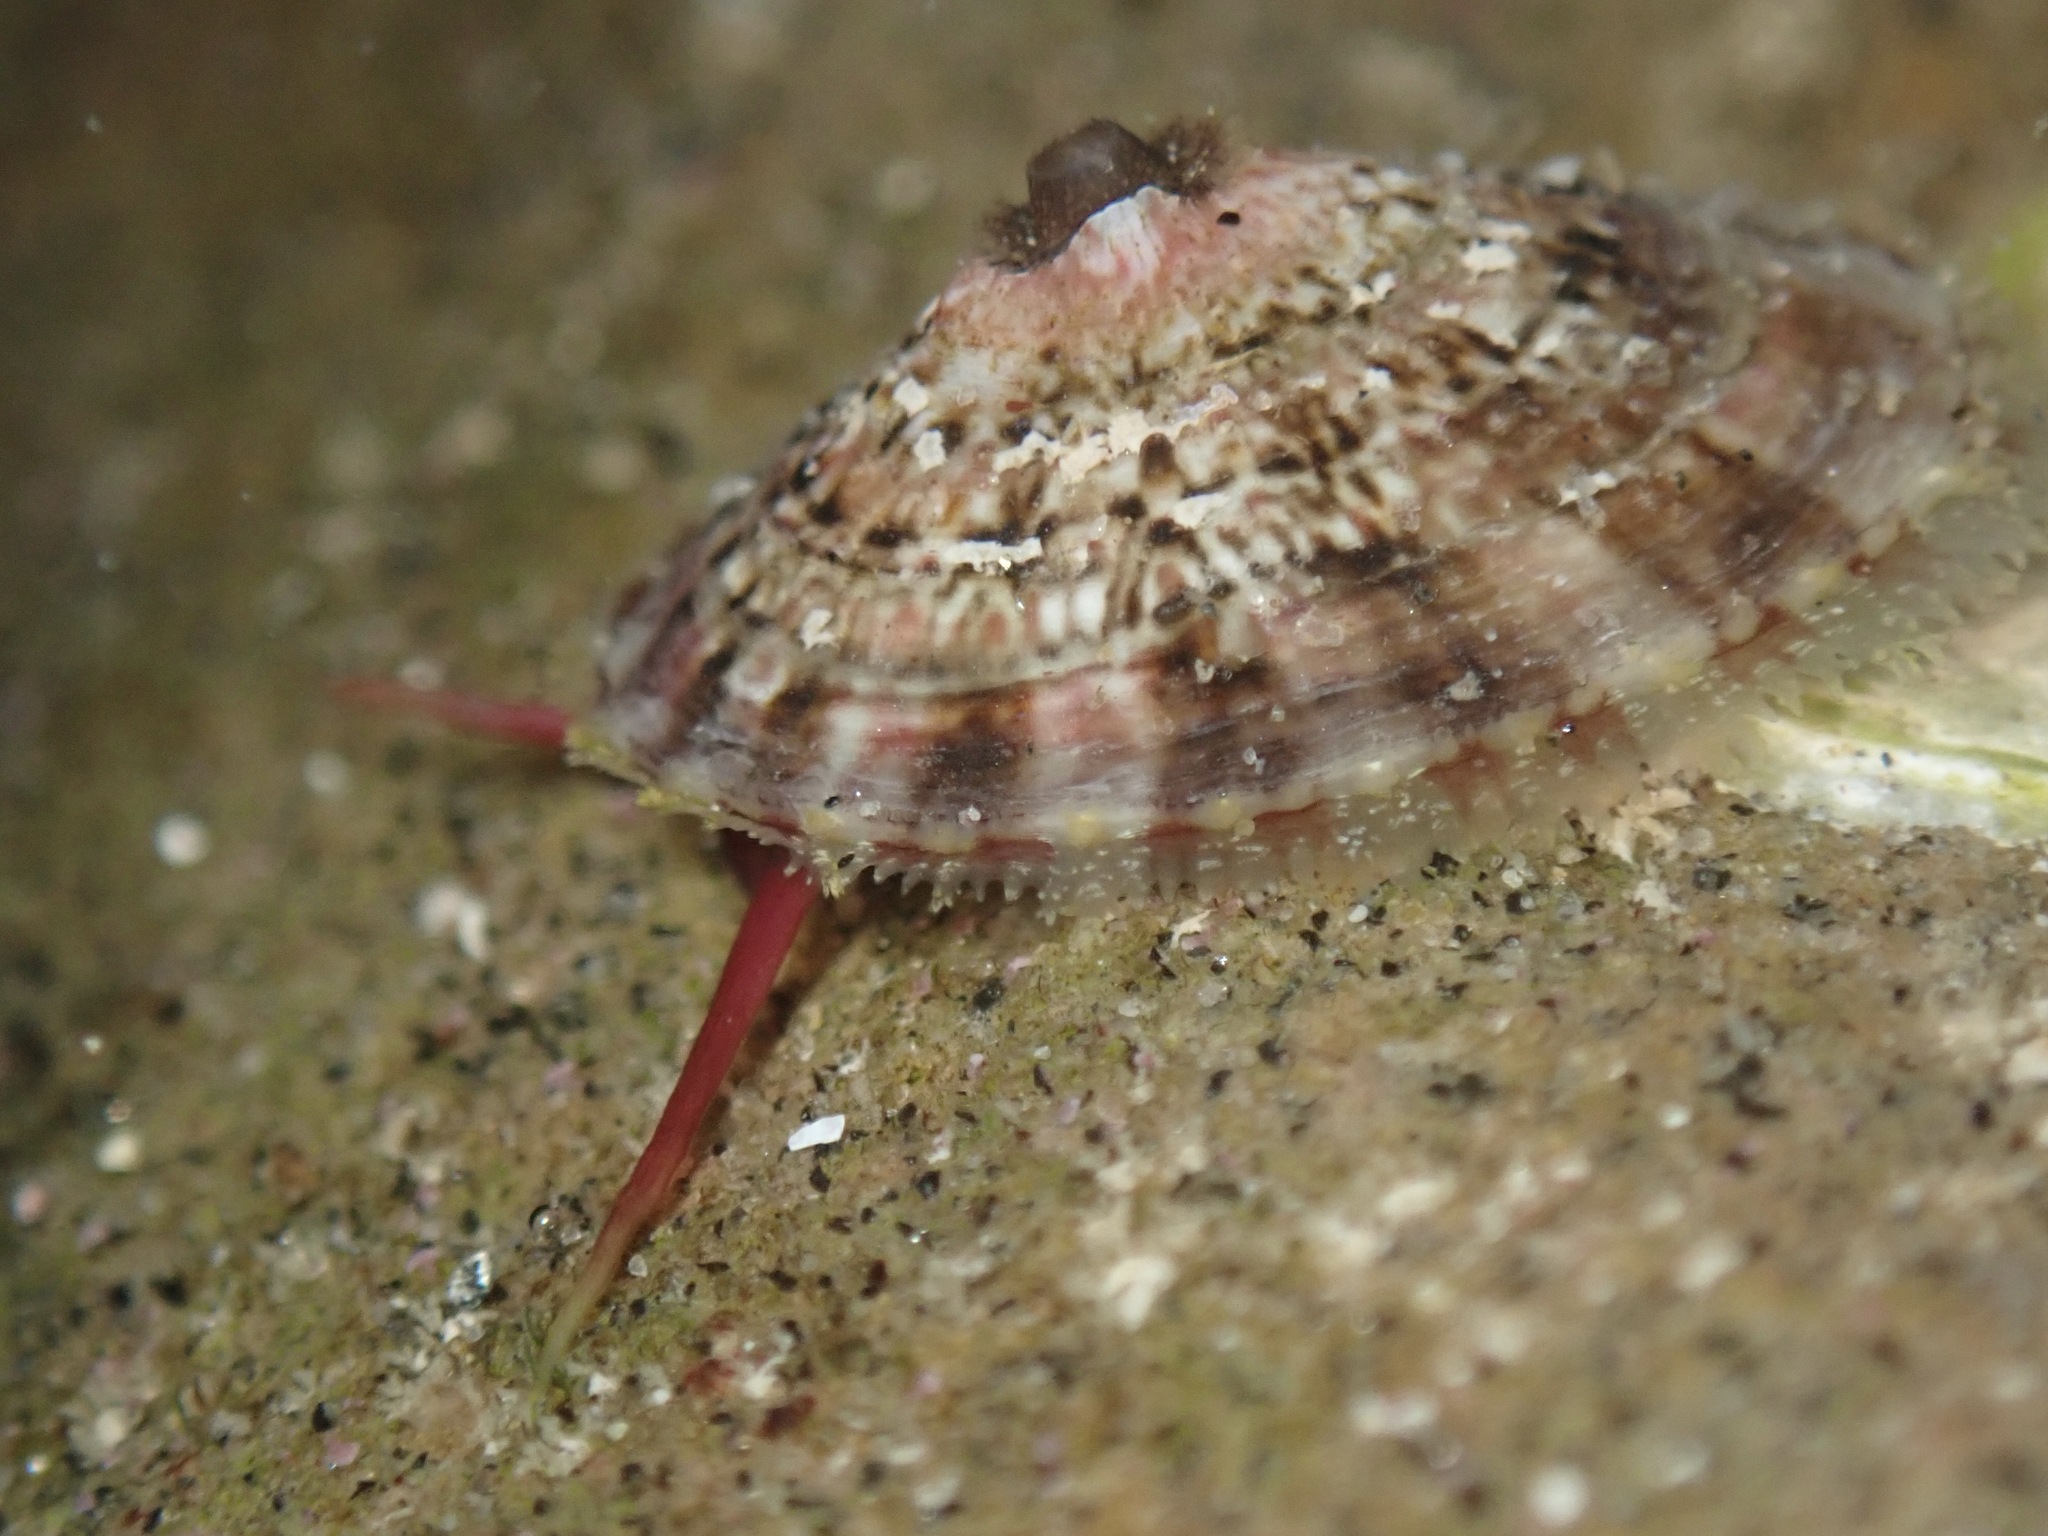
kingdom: Animalia
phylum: Mollusca
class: Gastropoda
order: Lepetellida
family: Fissurellidae
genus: Fissurella
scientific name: Fissurella volcano
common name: Volcano keyhole limpet
